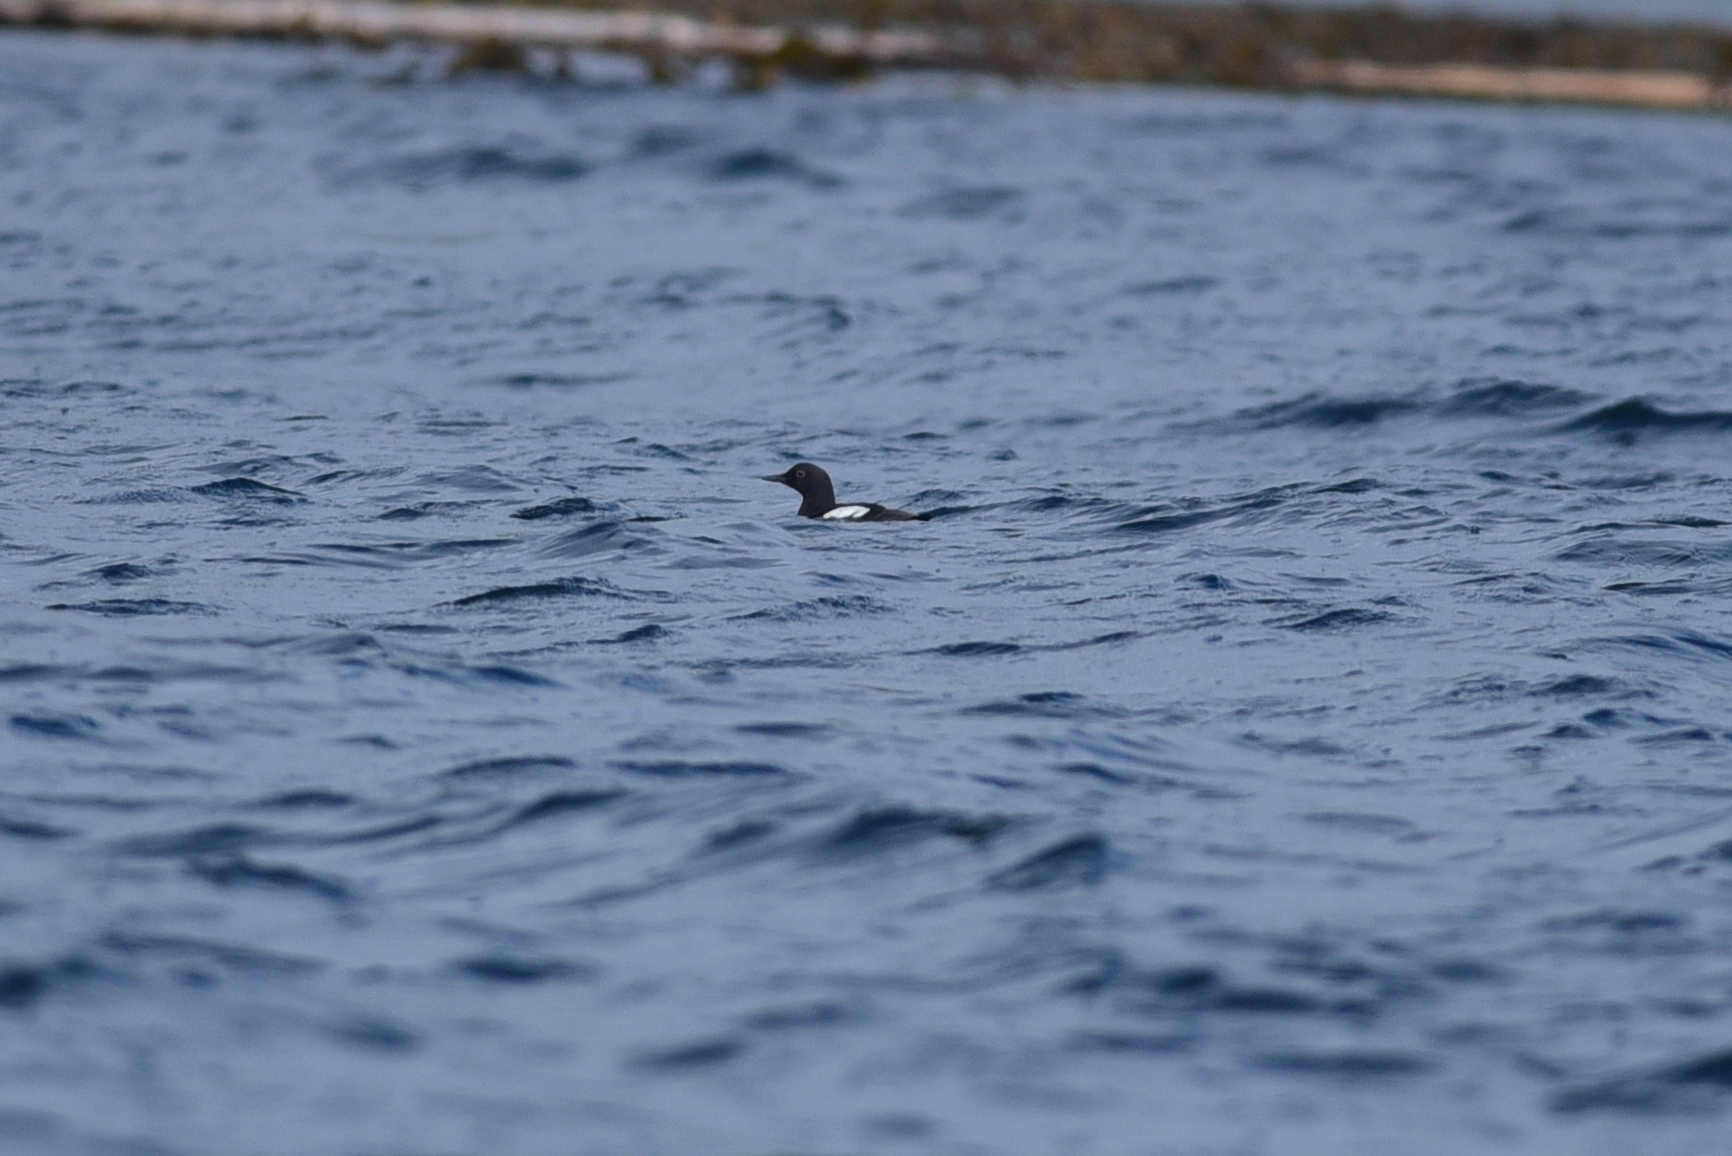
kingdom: Animalia
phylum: Chordata
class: Aves
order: Charadriiformes
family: Alcidae
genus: Cepphus
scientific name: Cepphus columba
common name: Pigeon guillemot
